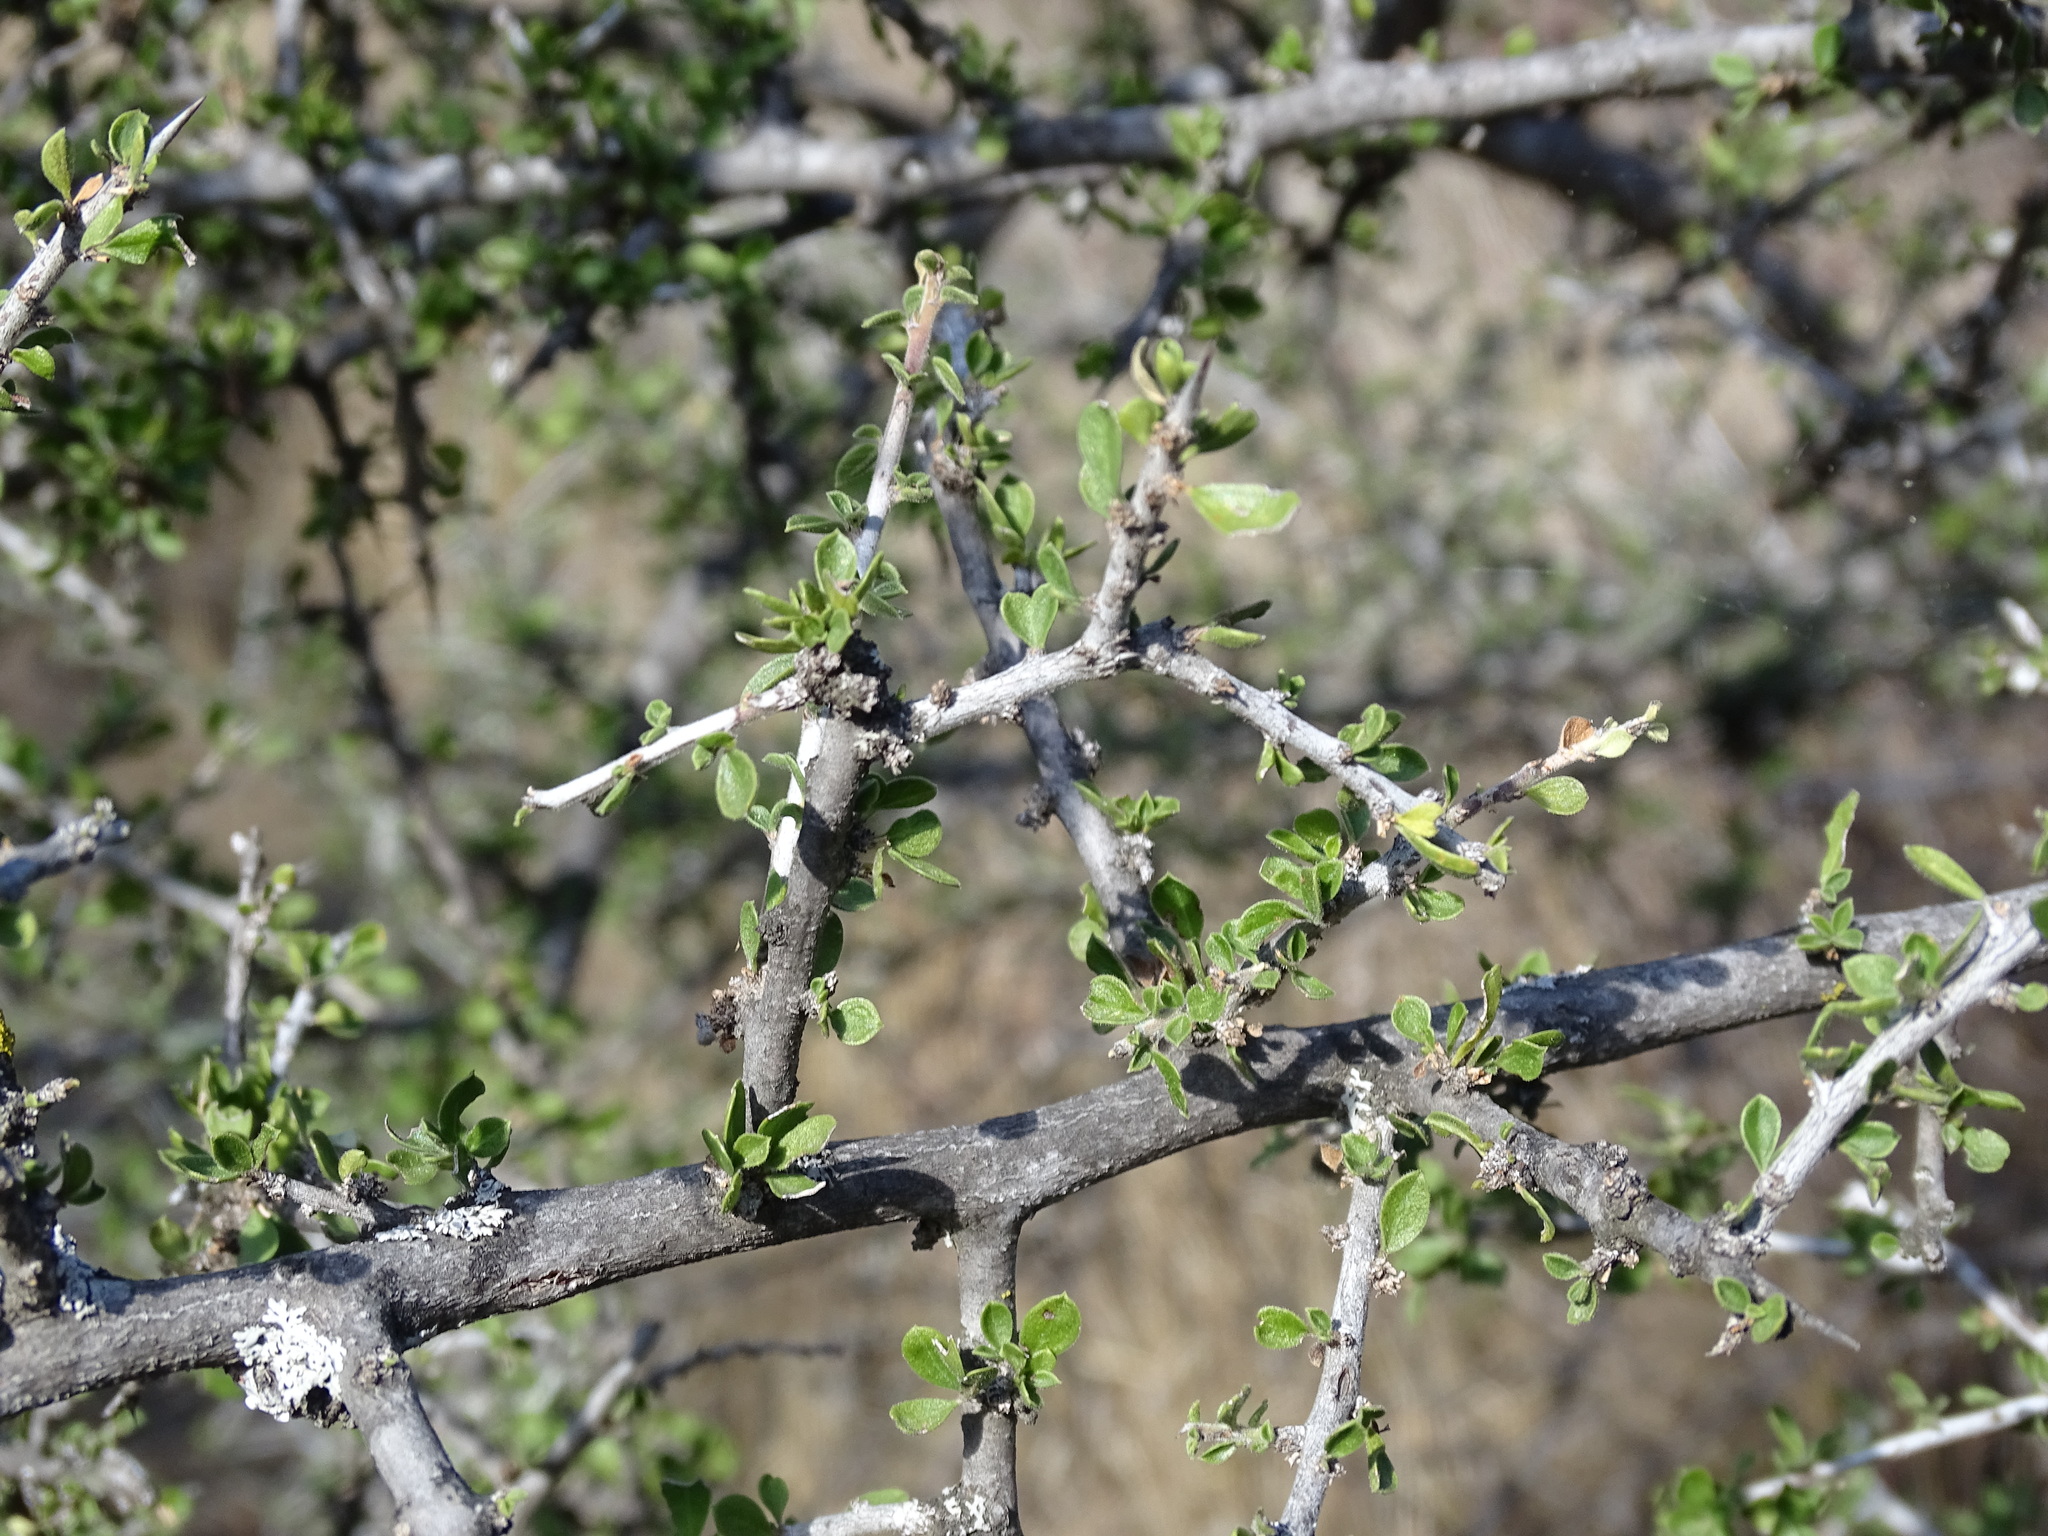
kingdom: Plantae
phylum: Tracheophyta
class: Magnoliopsida
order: Rosales
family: Rhamnaceae
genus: Condalia
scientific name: Condalia velutina
